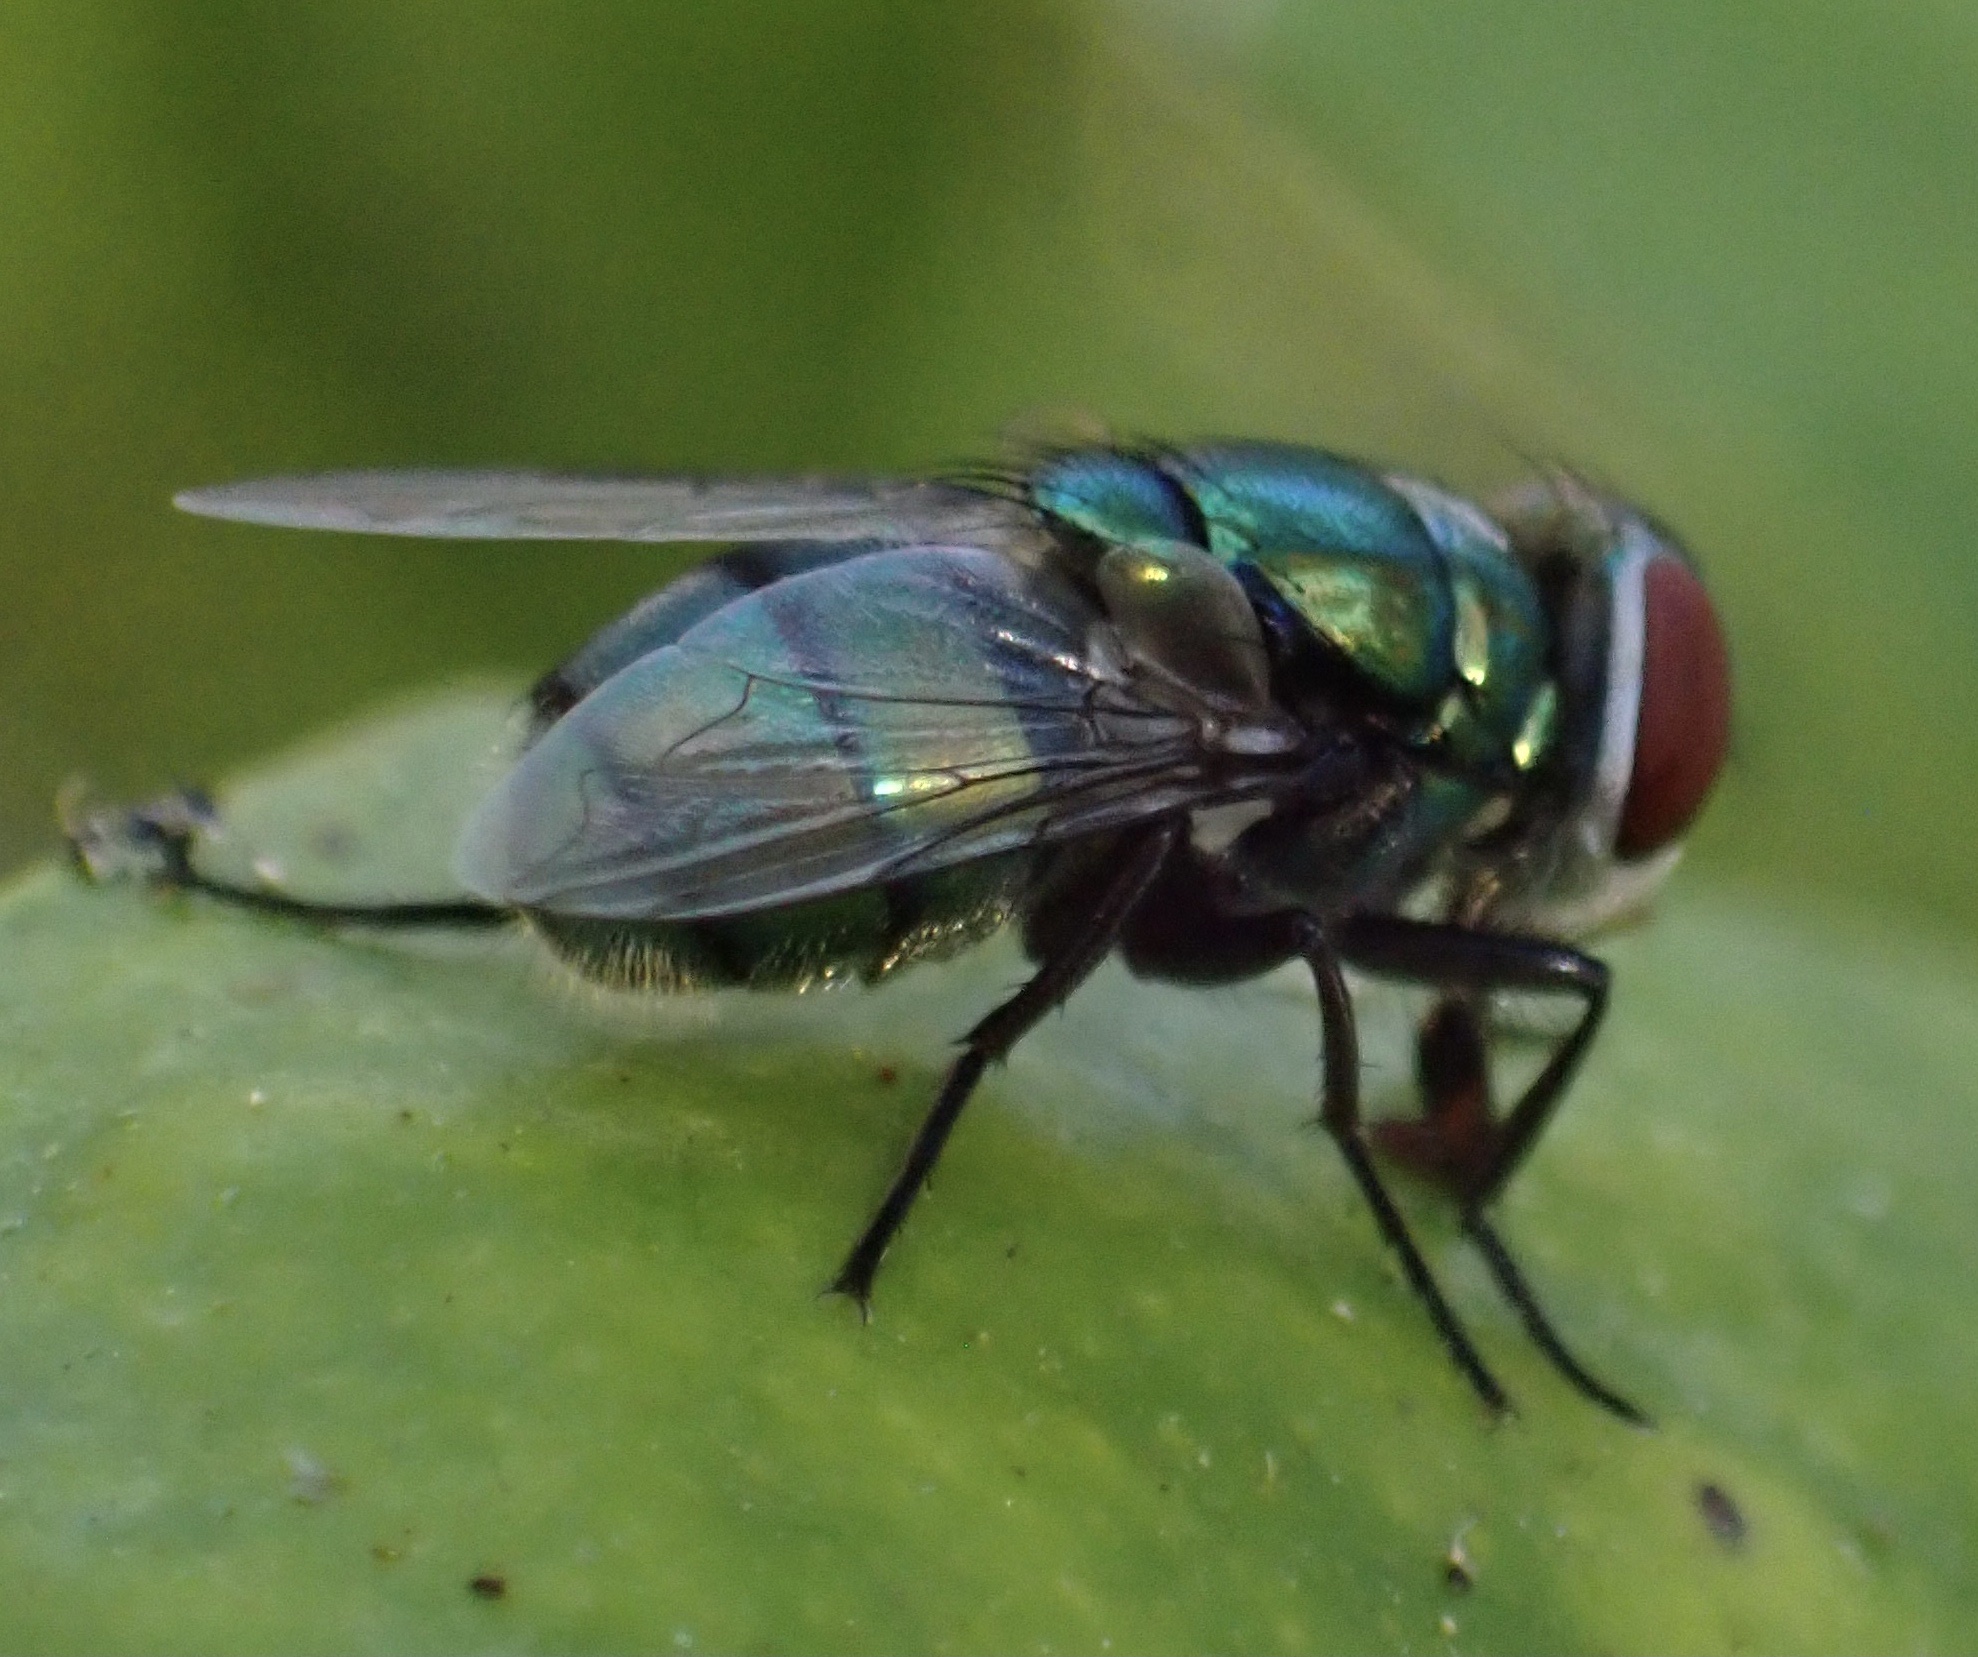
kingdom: Animalia
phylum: Arthropoda
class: Insecta
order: Diptera
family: Calliphoridae
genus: Chrysomya
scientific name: Chrysomya albiceps
